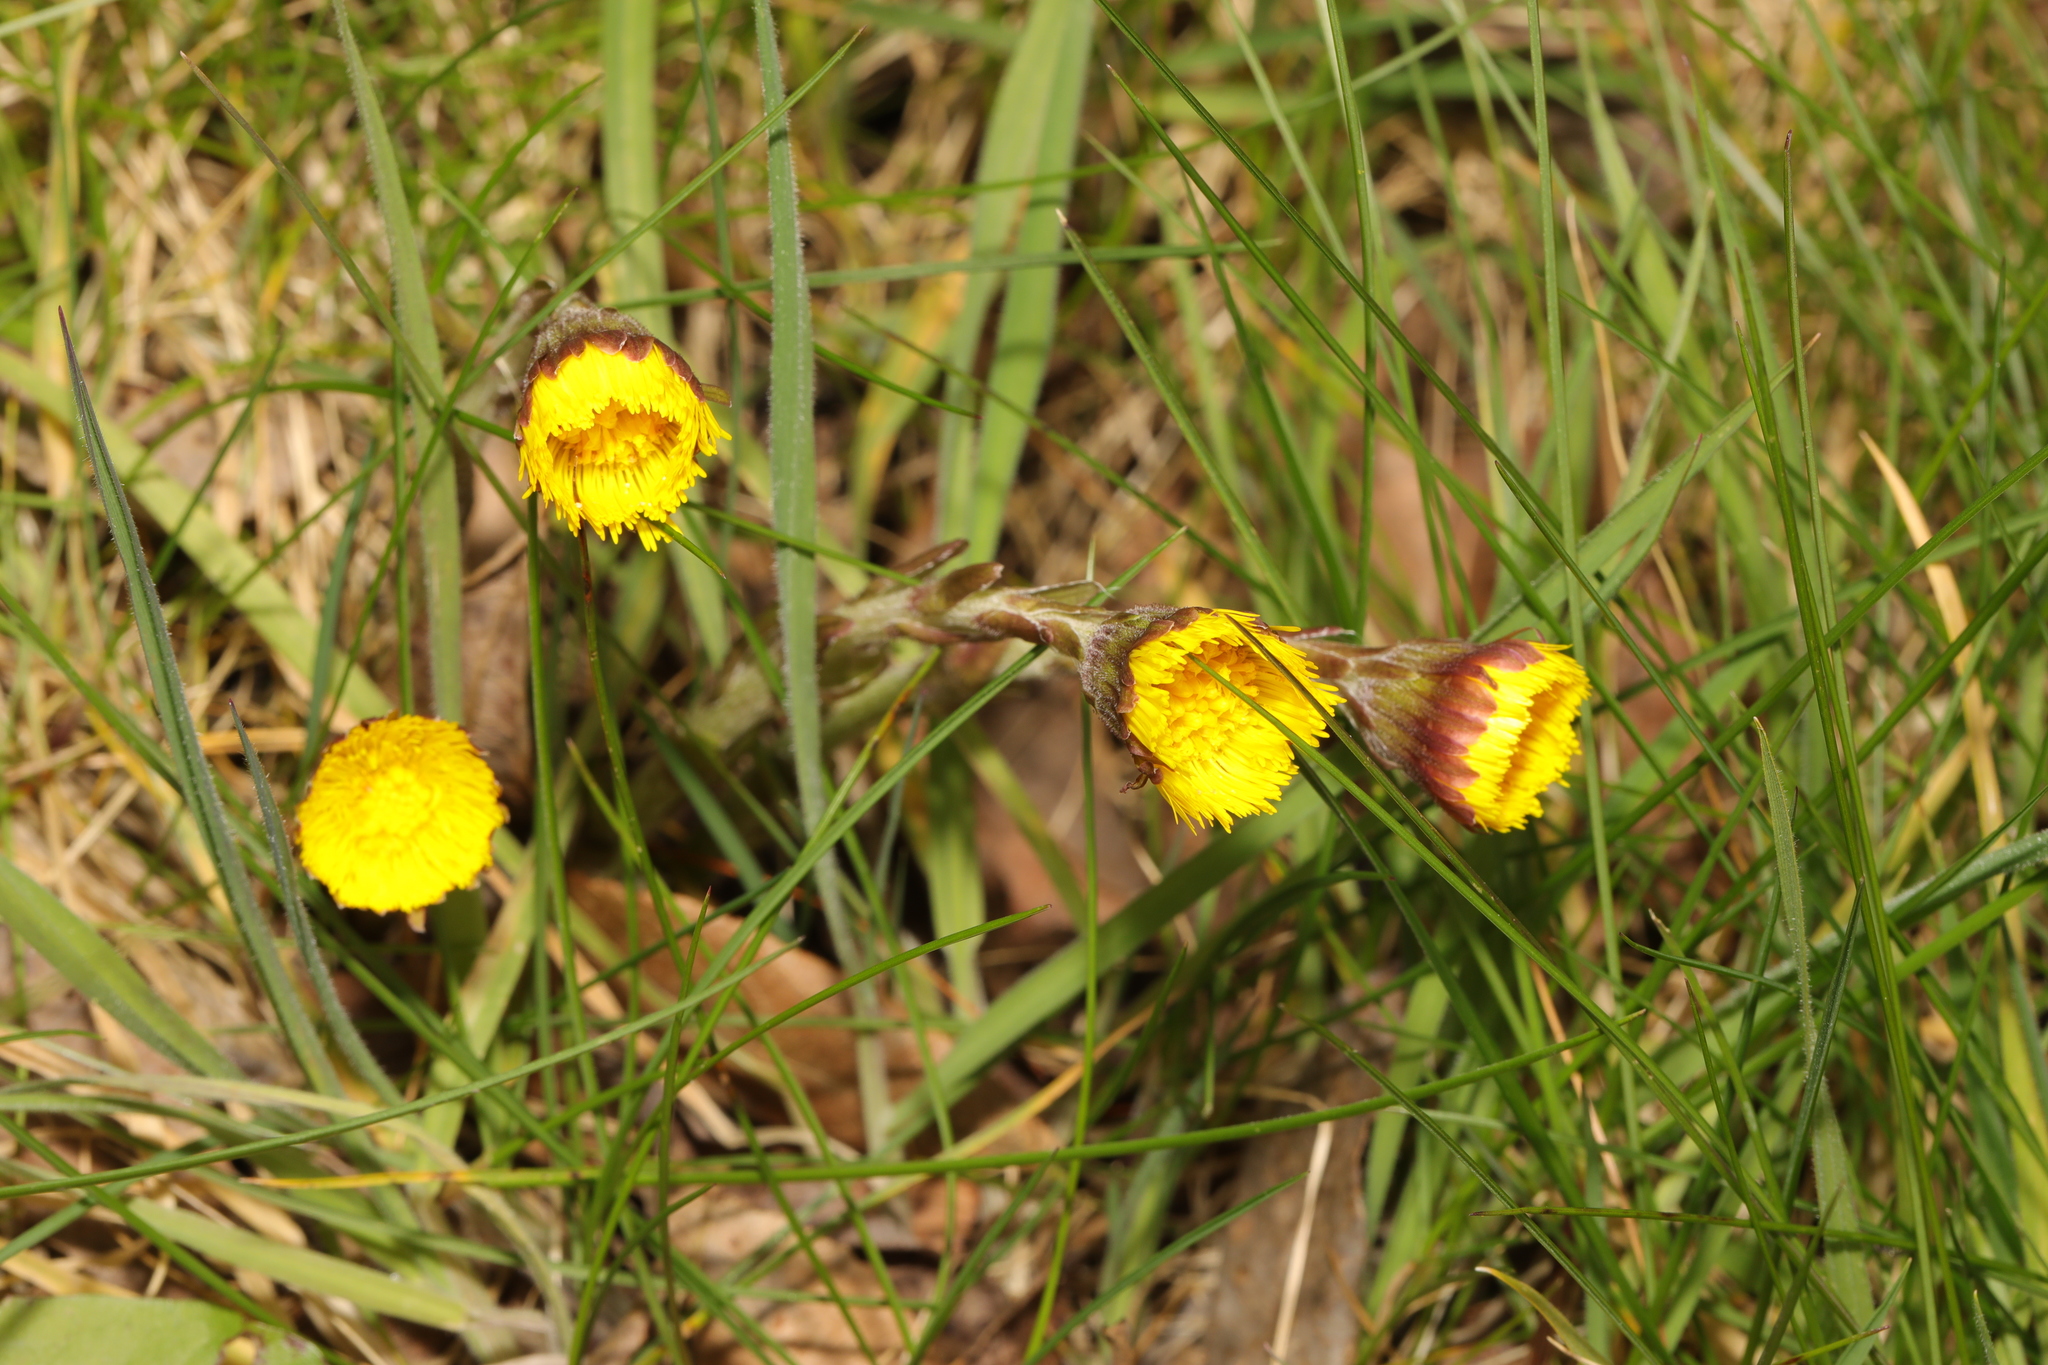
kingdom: Plantae
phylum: Tracheophyta
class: Magnoliopsida
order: Asterales
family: Asteraceae
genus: Tussilago
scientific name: Tussilago farfara
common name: Coltsfoot
